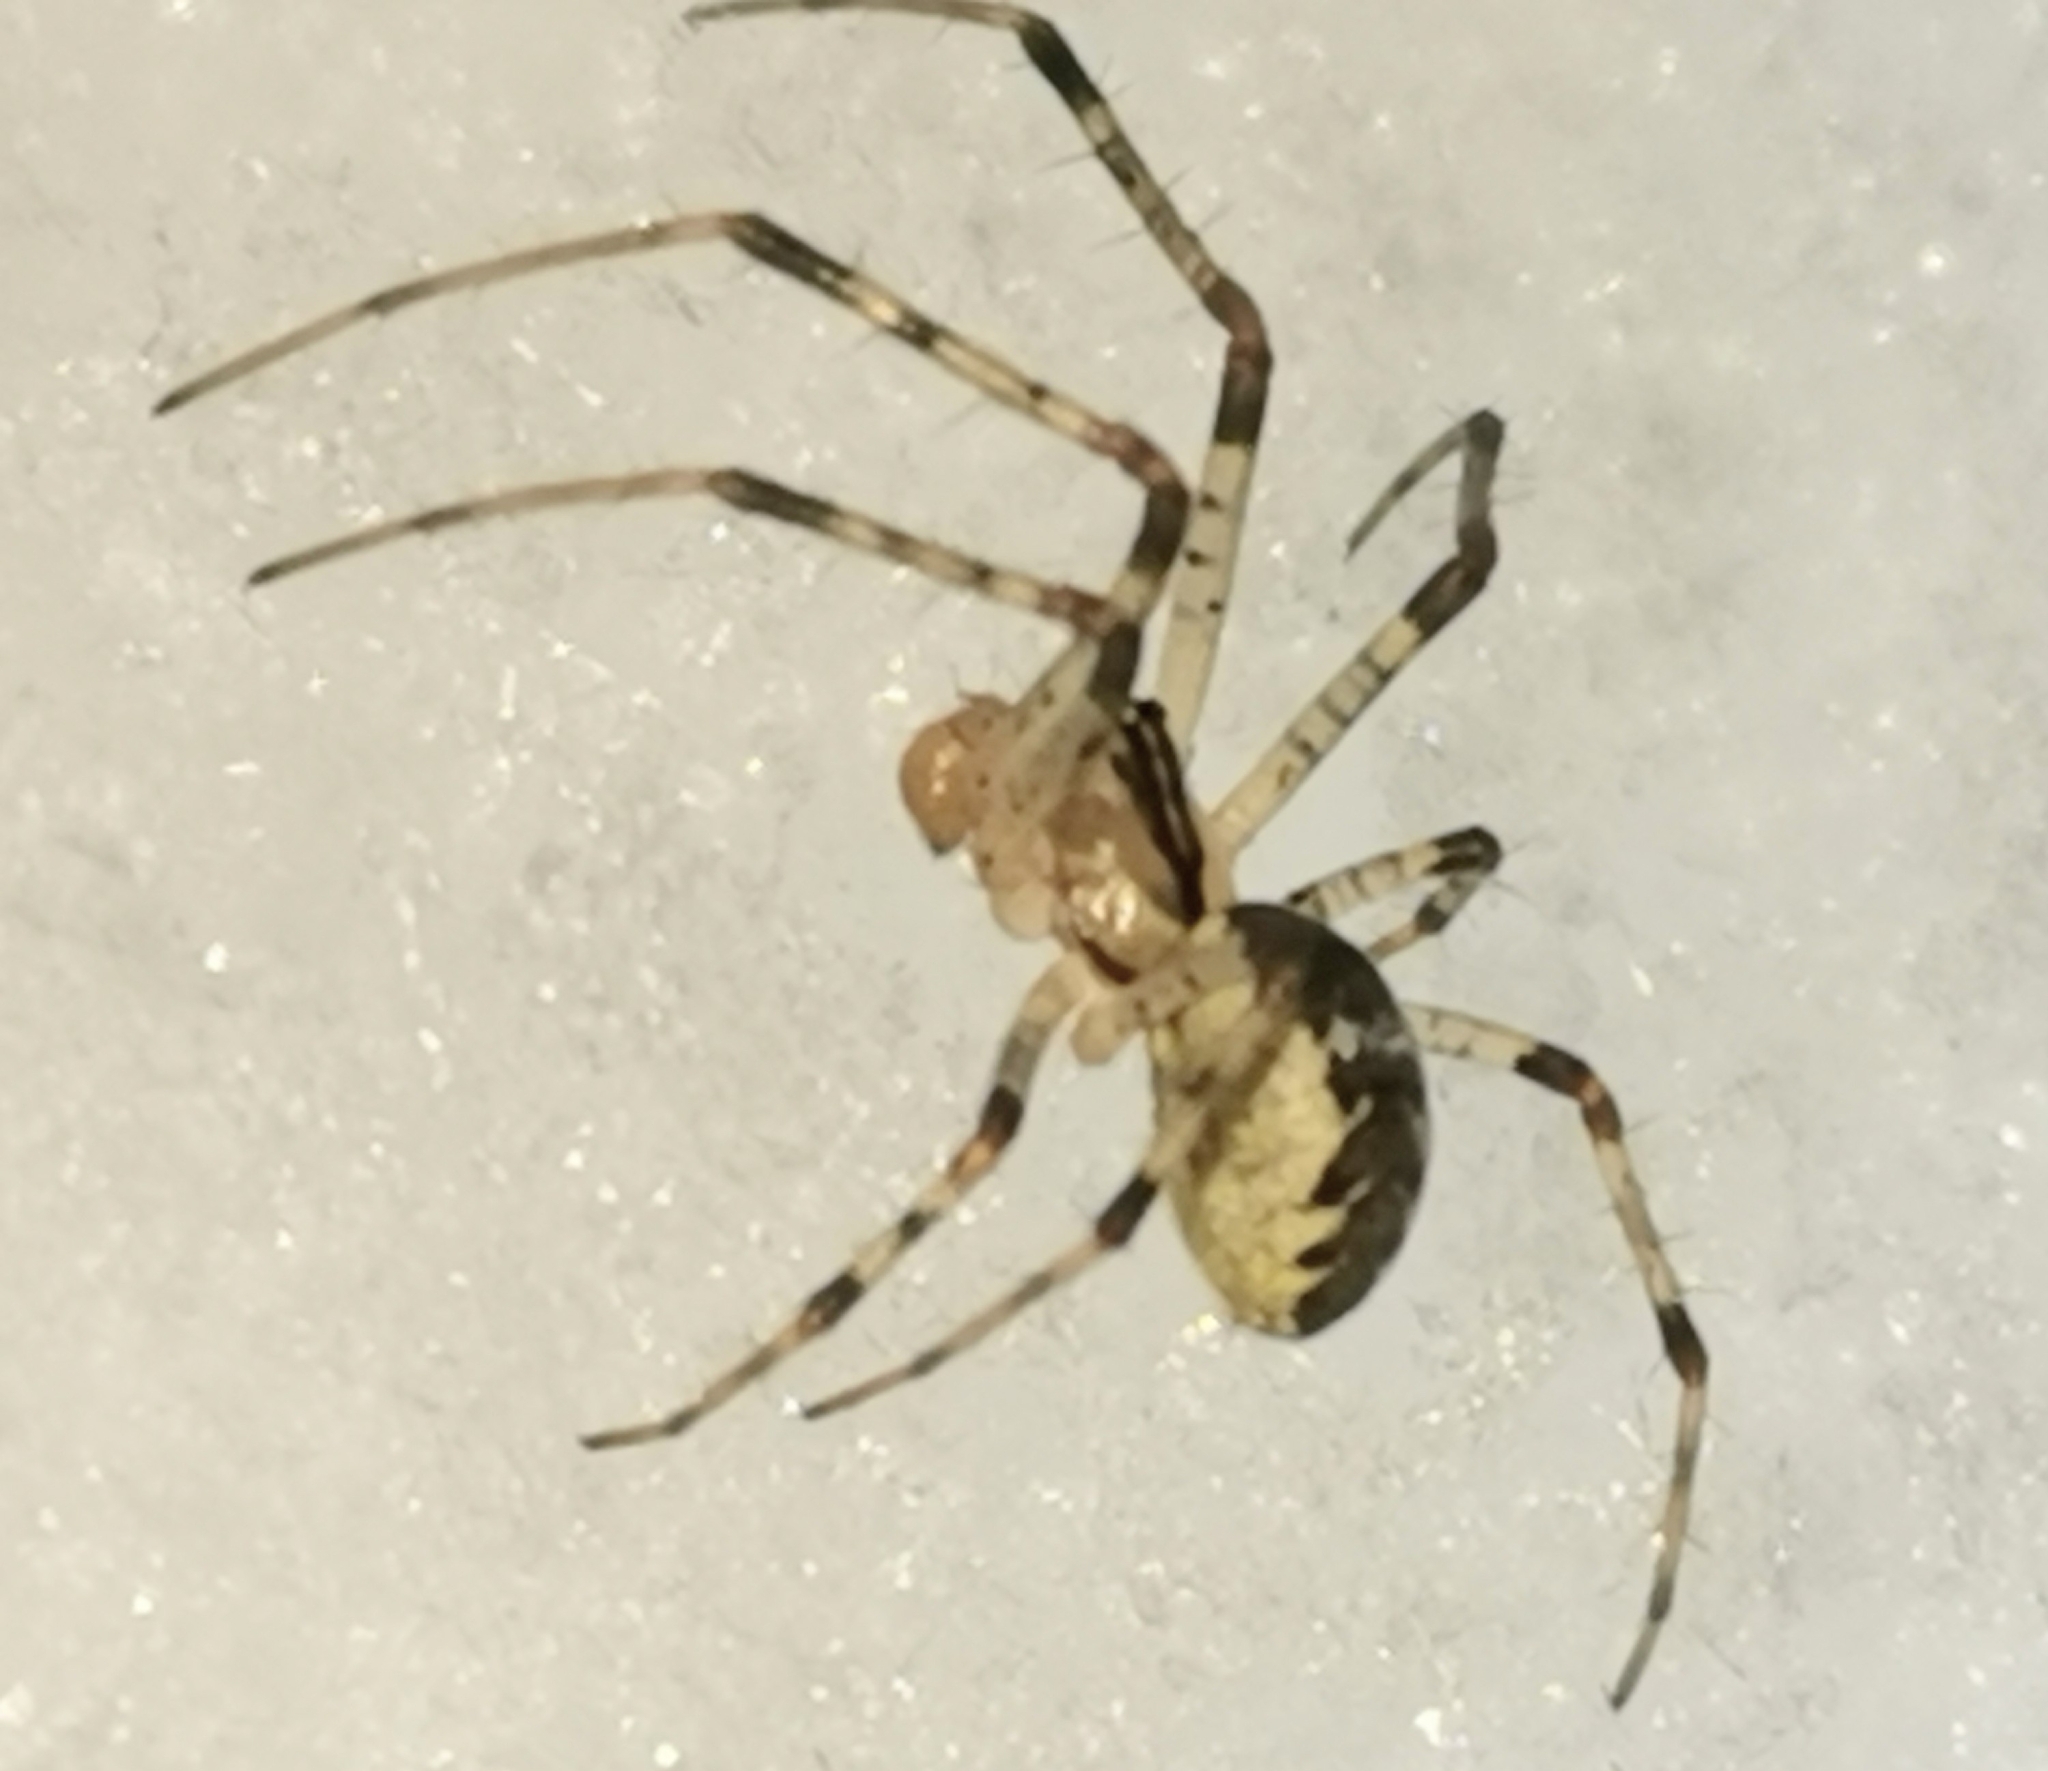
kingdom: Animalia
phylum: Arthropoda
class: Arachnida
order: Araneae
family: Linyphiidae
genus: Pityohyphantes
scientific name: Pityohyphantes phrygianus
